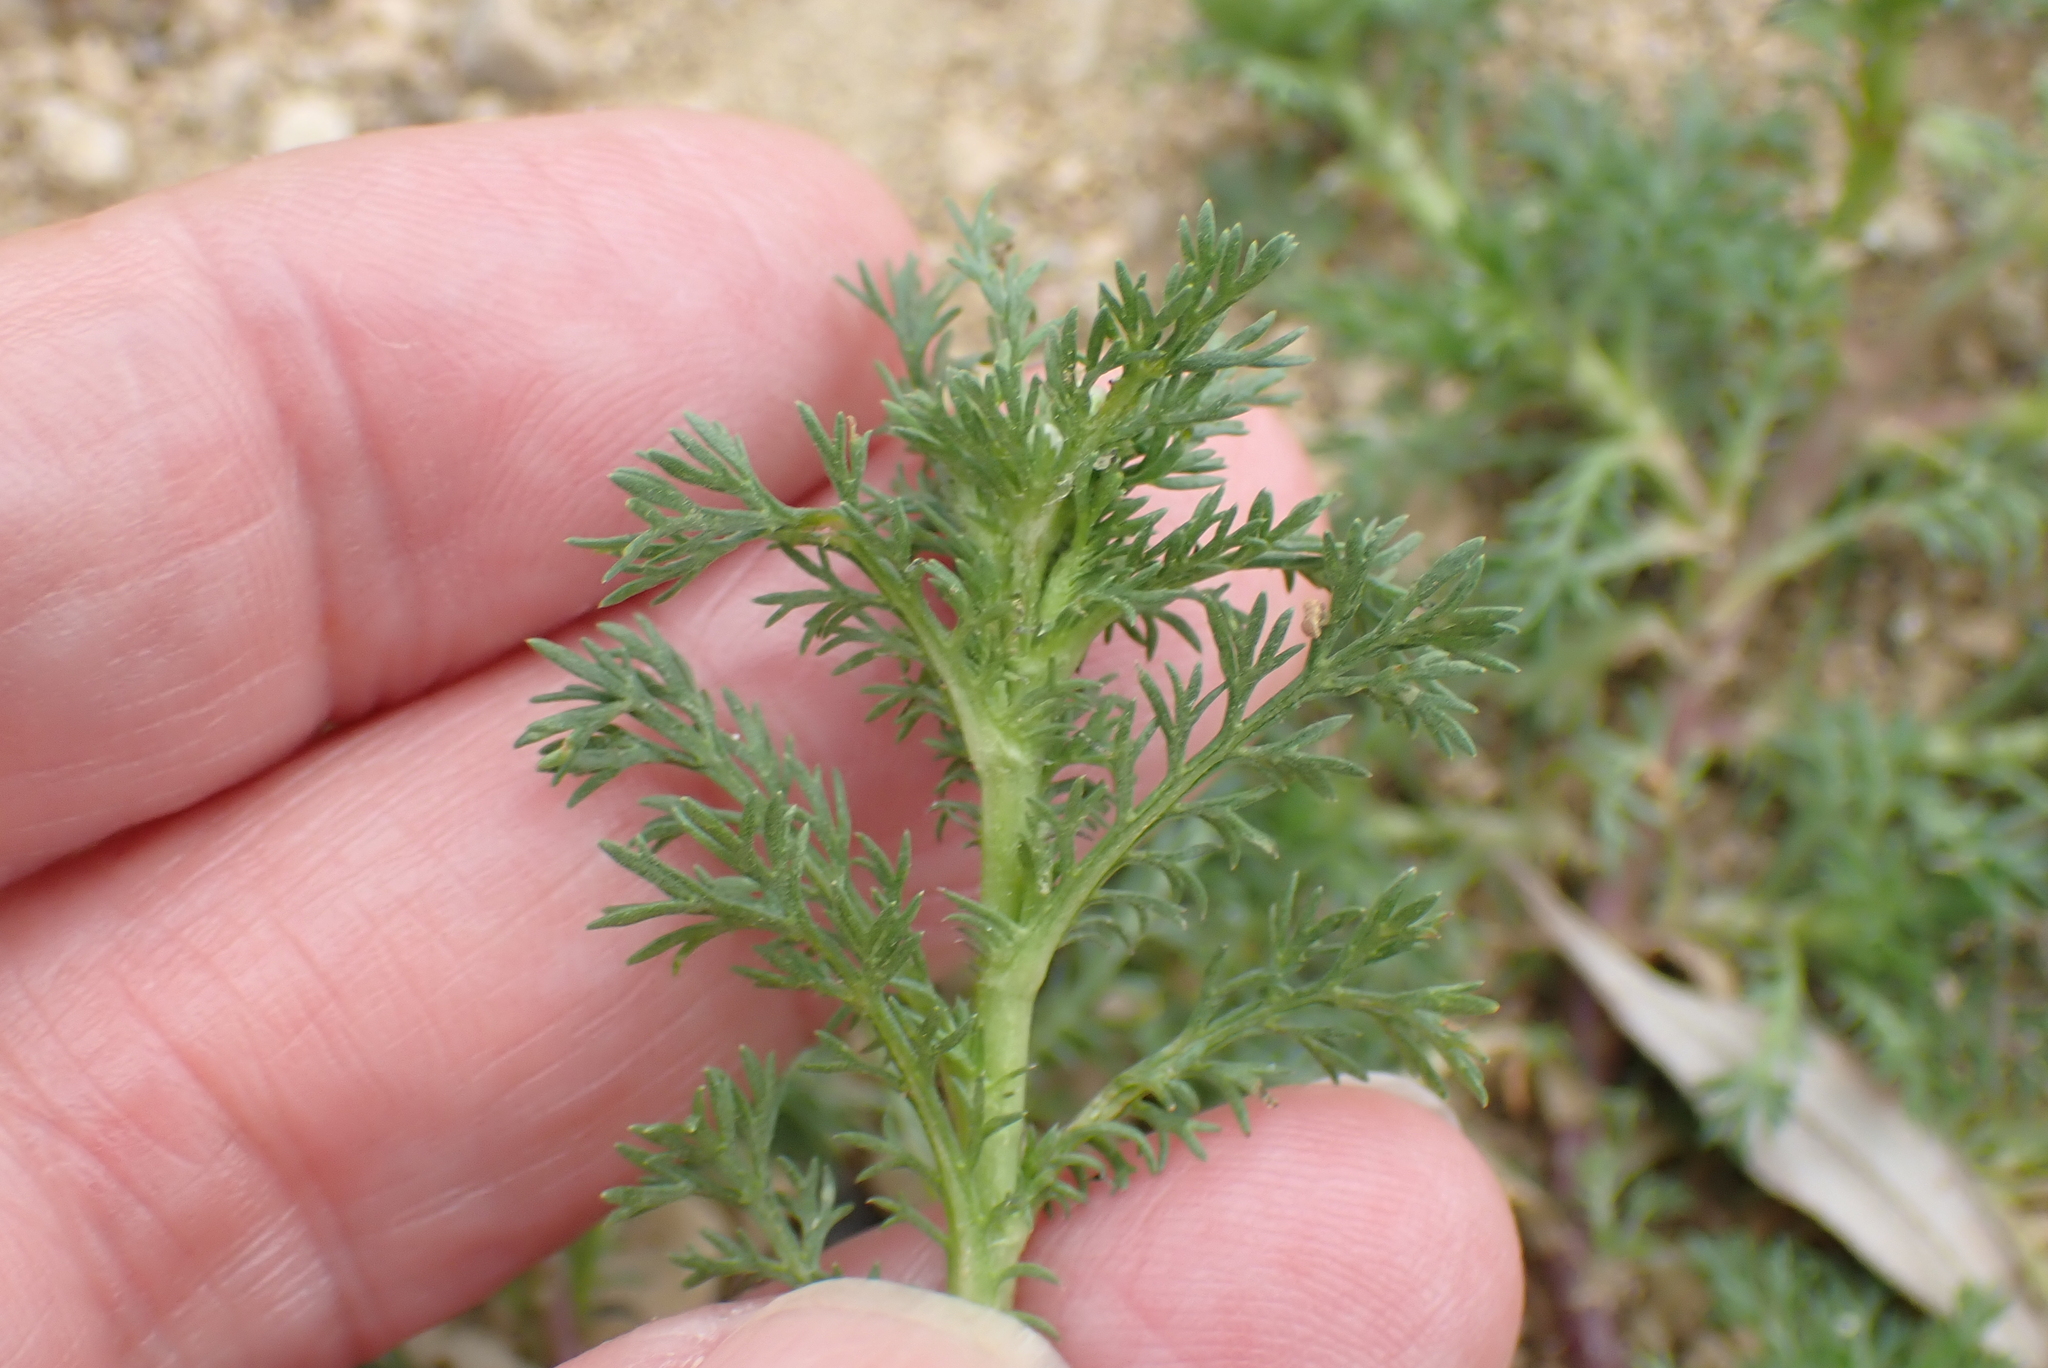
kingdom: Plantae
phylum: Tracheophyta
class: Magnoliopsida
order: Asterales
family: Asteraceae
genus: Matricaria
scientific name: Matricaria discoidea
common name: Disc mayweed
